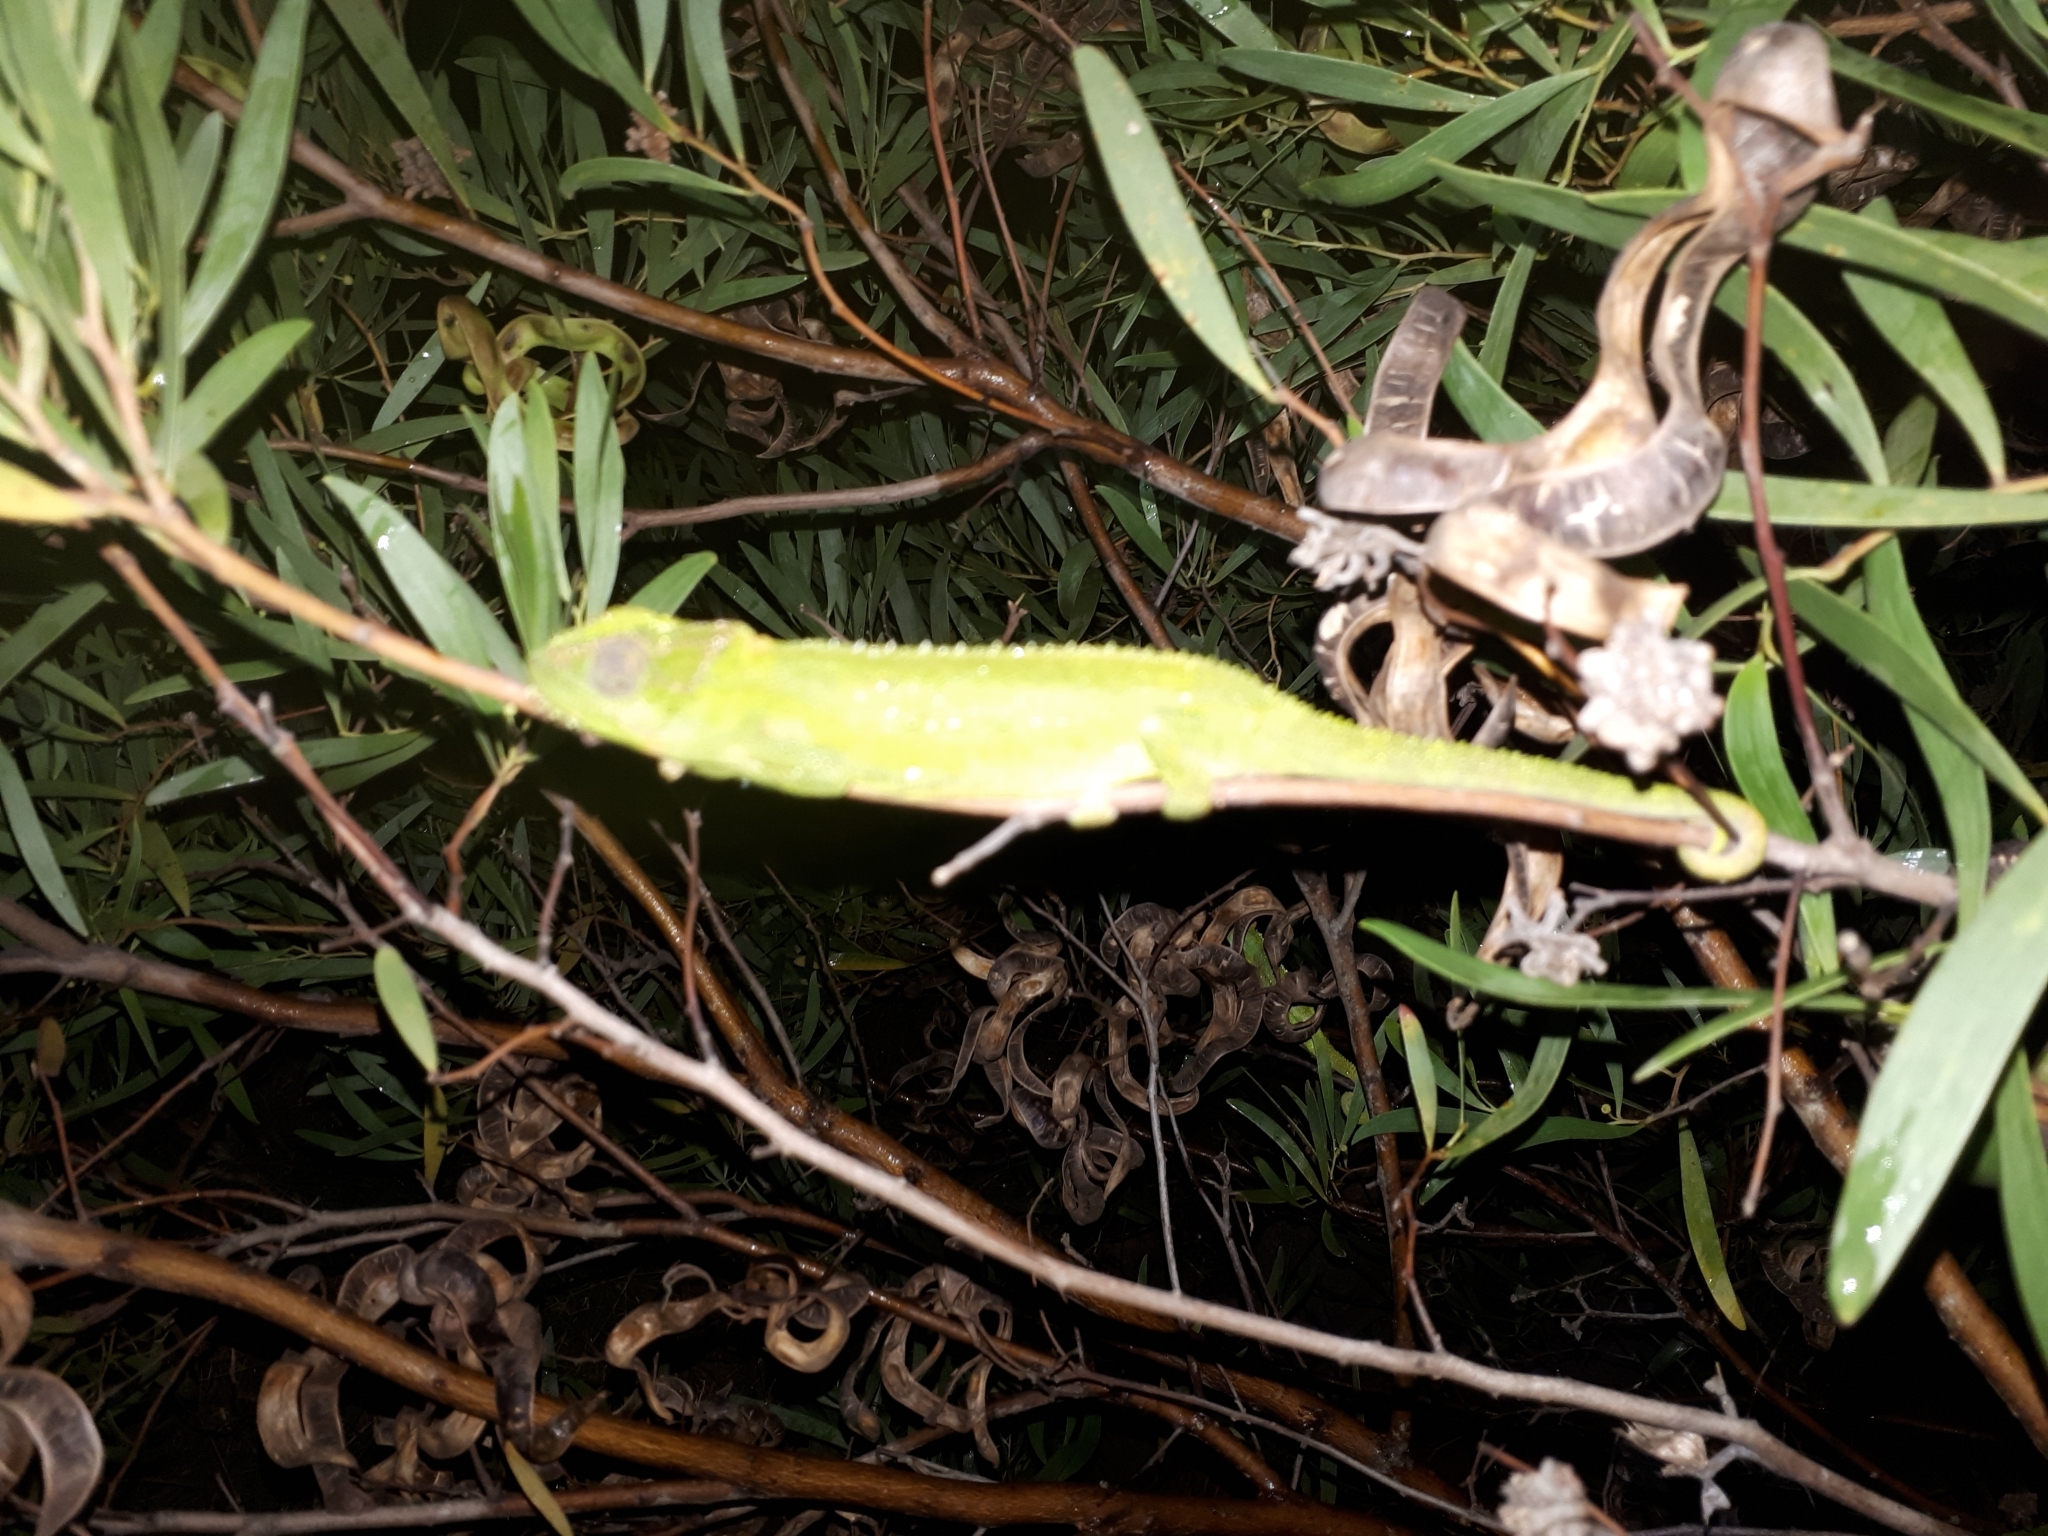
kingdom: Animalia
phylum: Chordata
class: Squamata
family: Chamaeleonidae
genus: Bradypodion
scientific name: Bradypodion pumilum
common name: Cape dwarf chameleon
